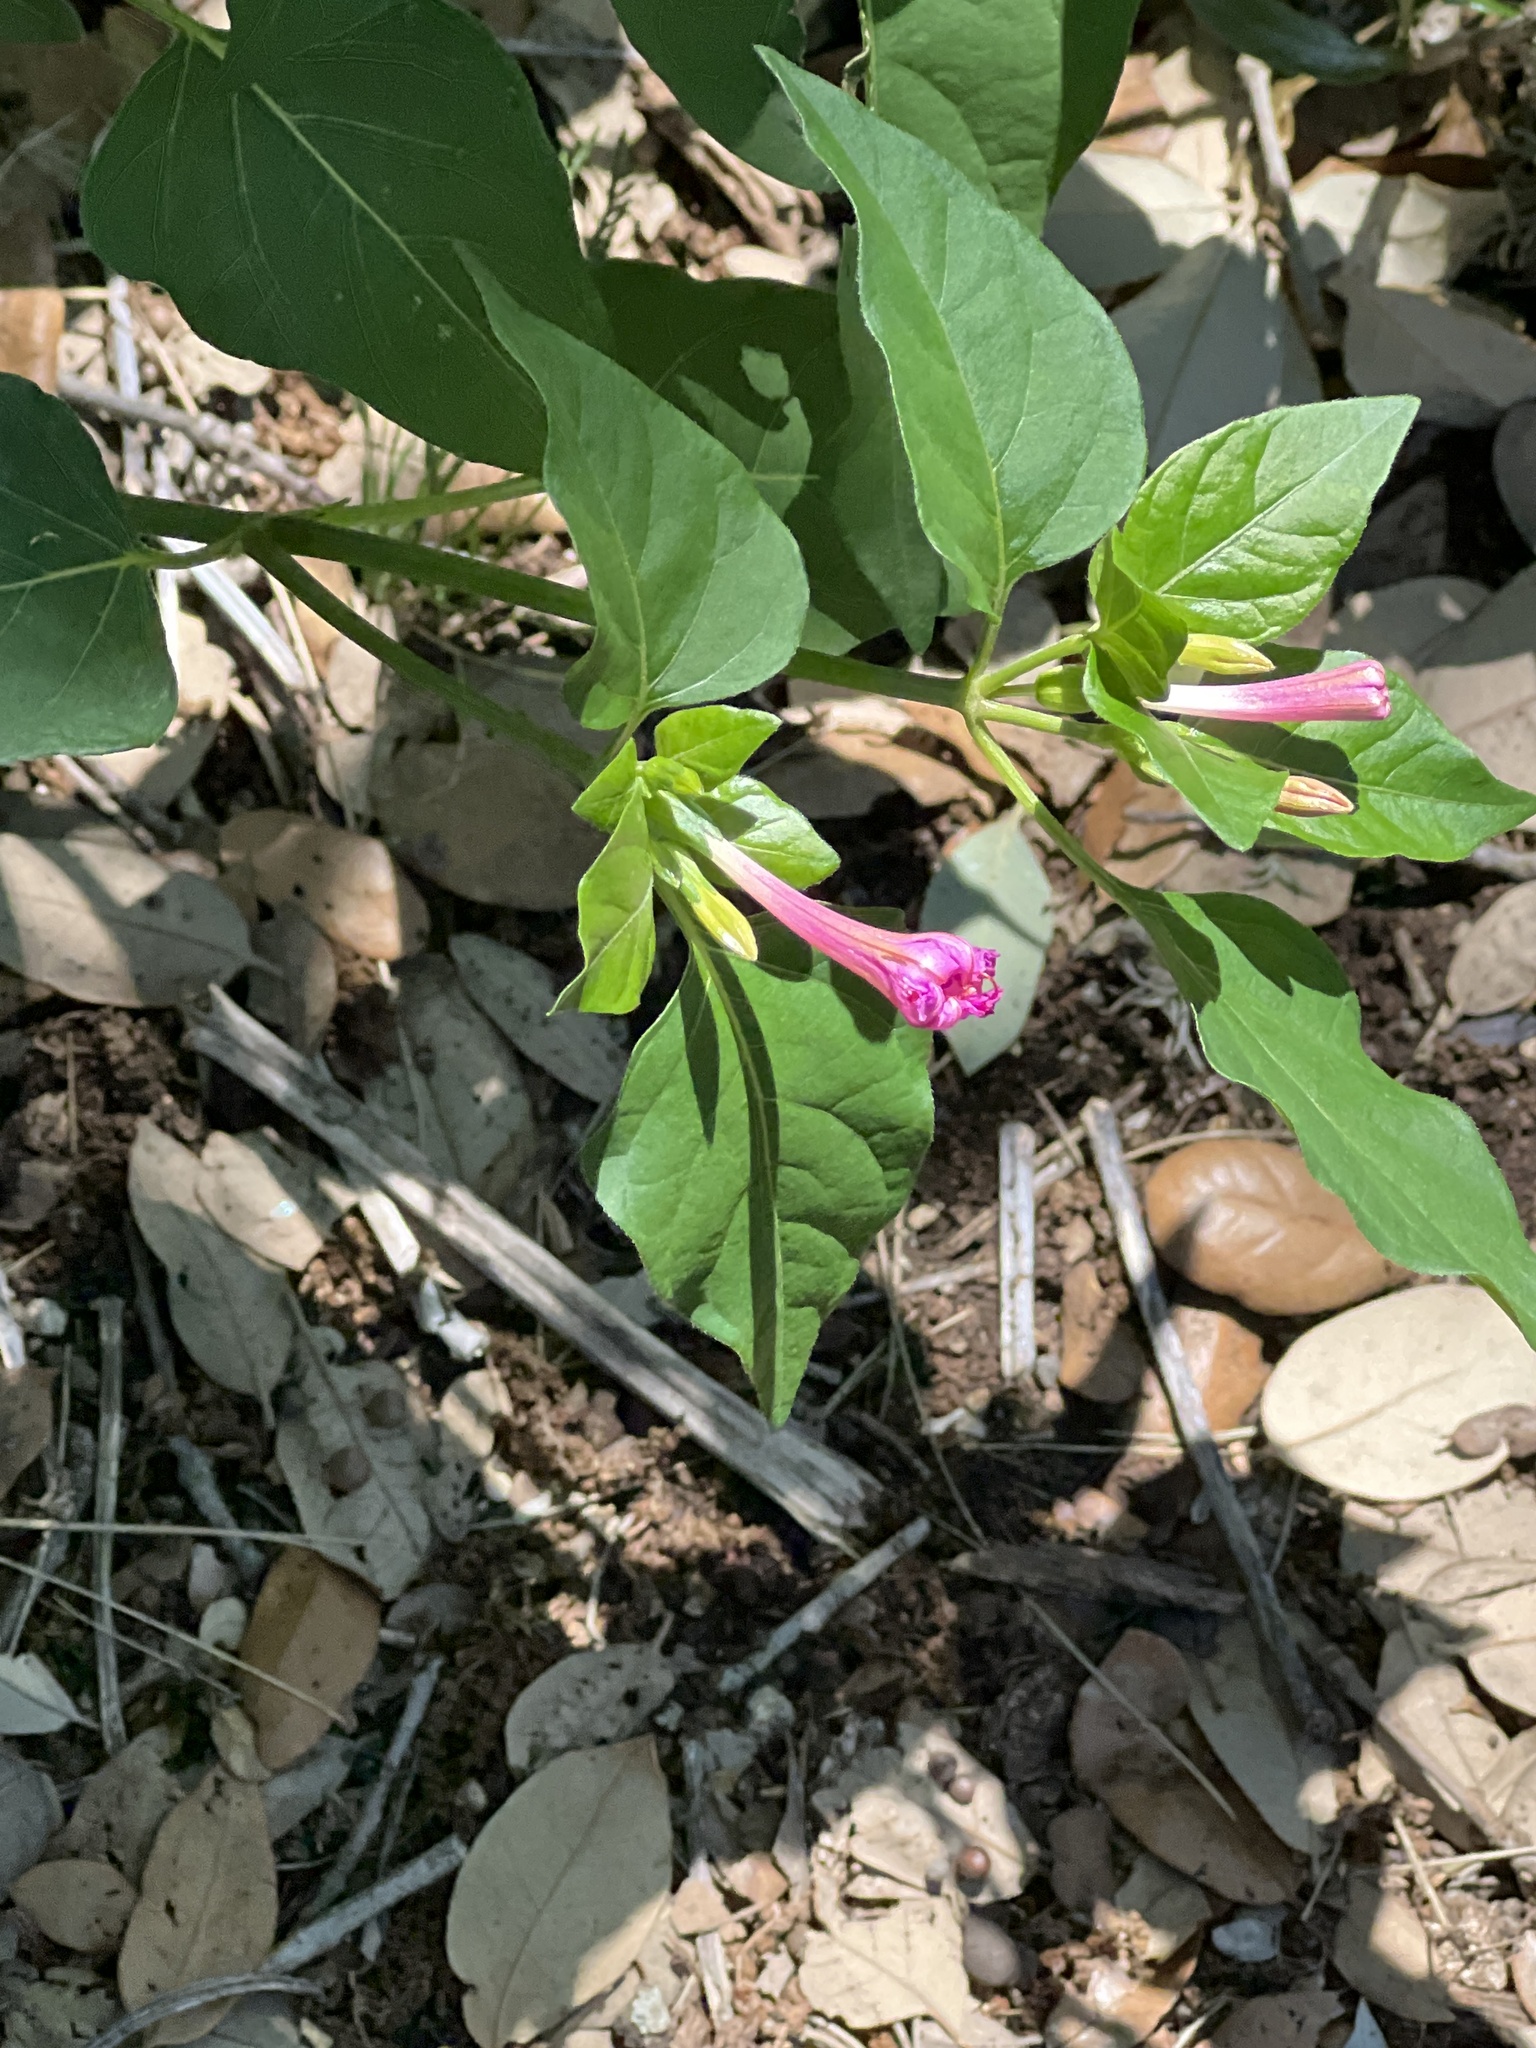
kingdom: Plantae
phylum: Tracheophyta
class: Magnoliopsida
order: Caryophyllales
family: Nyctaginaceae
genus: Mirabilis
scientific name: Mirabilis jalapa
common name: Marvel-of-peru
